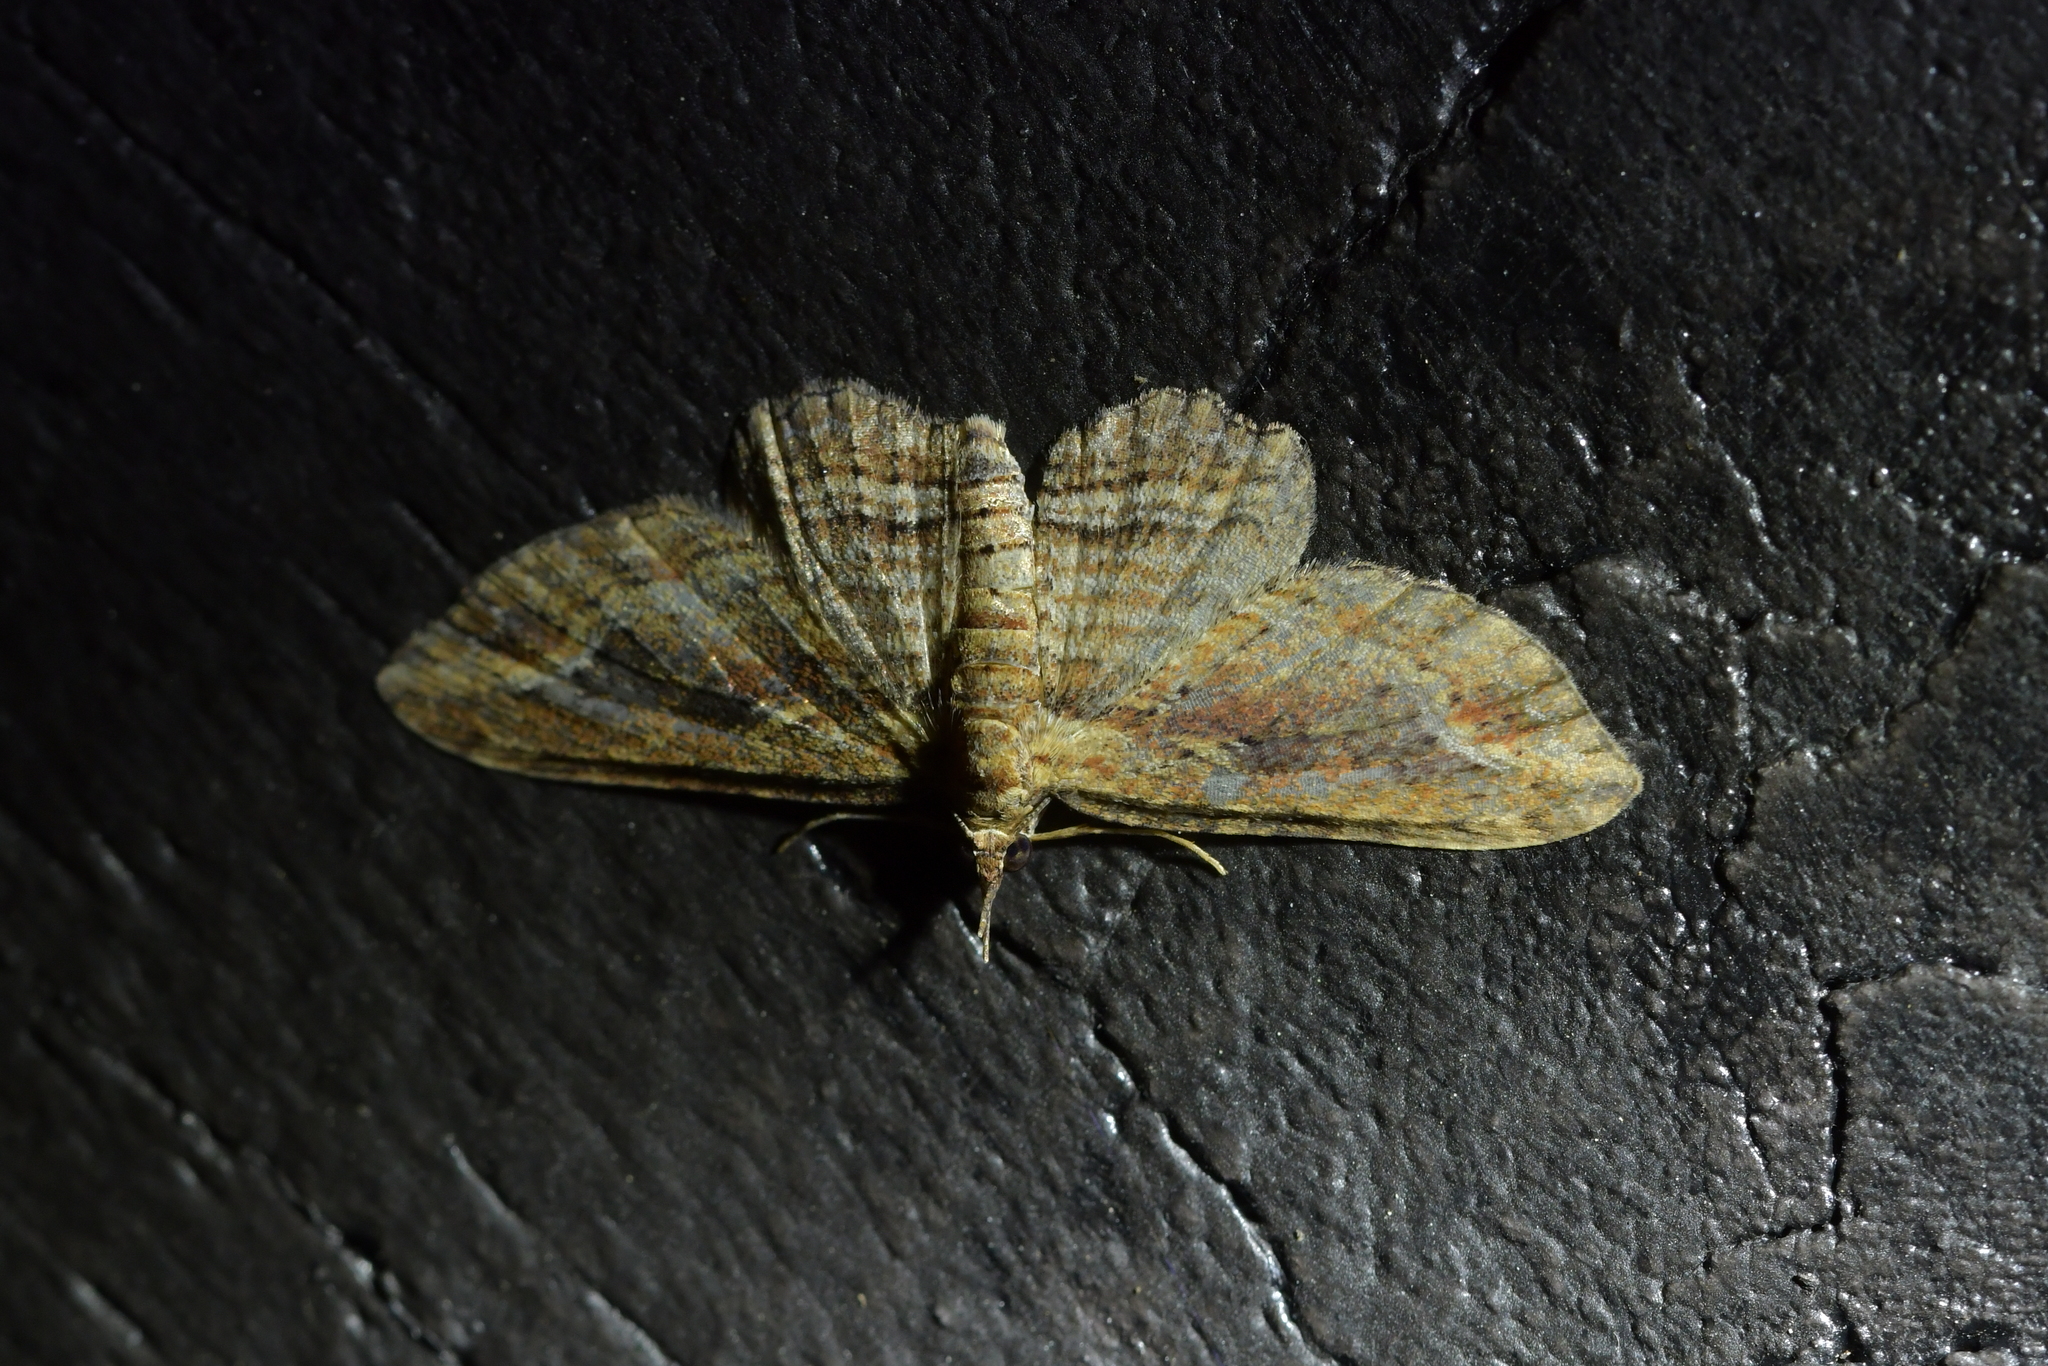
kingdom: Animalia
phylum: Arthropoda
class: Insecta
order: Lepidoptera
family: Geometridae
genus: Chloroclystis
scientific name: Chloroclystis filata
